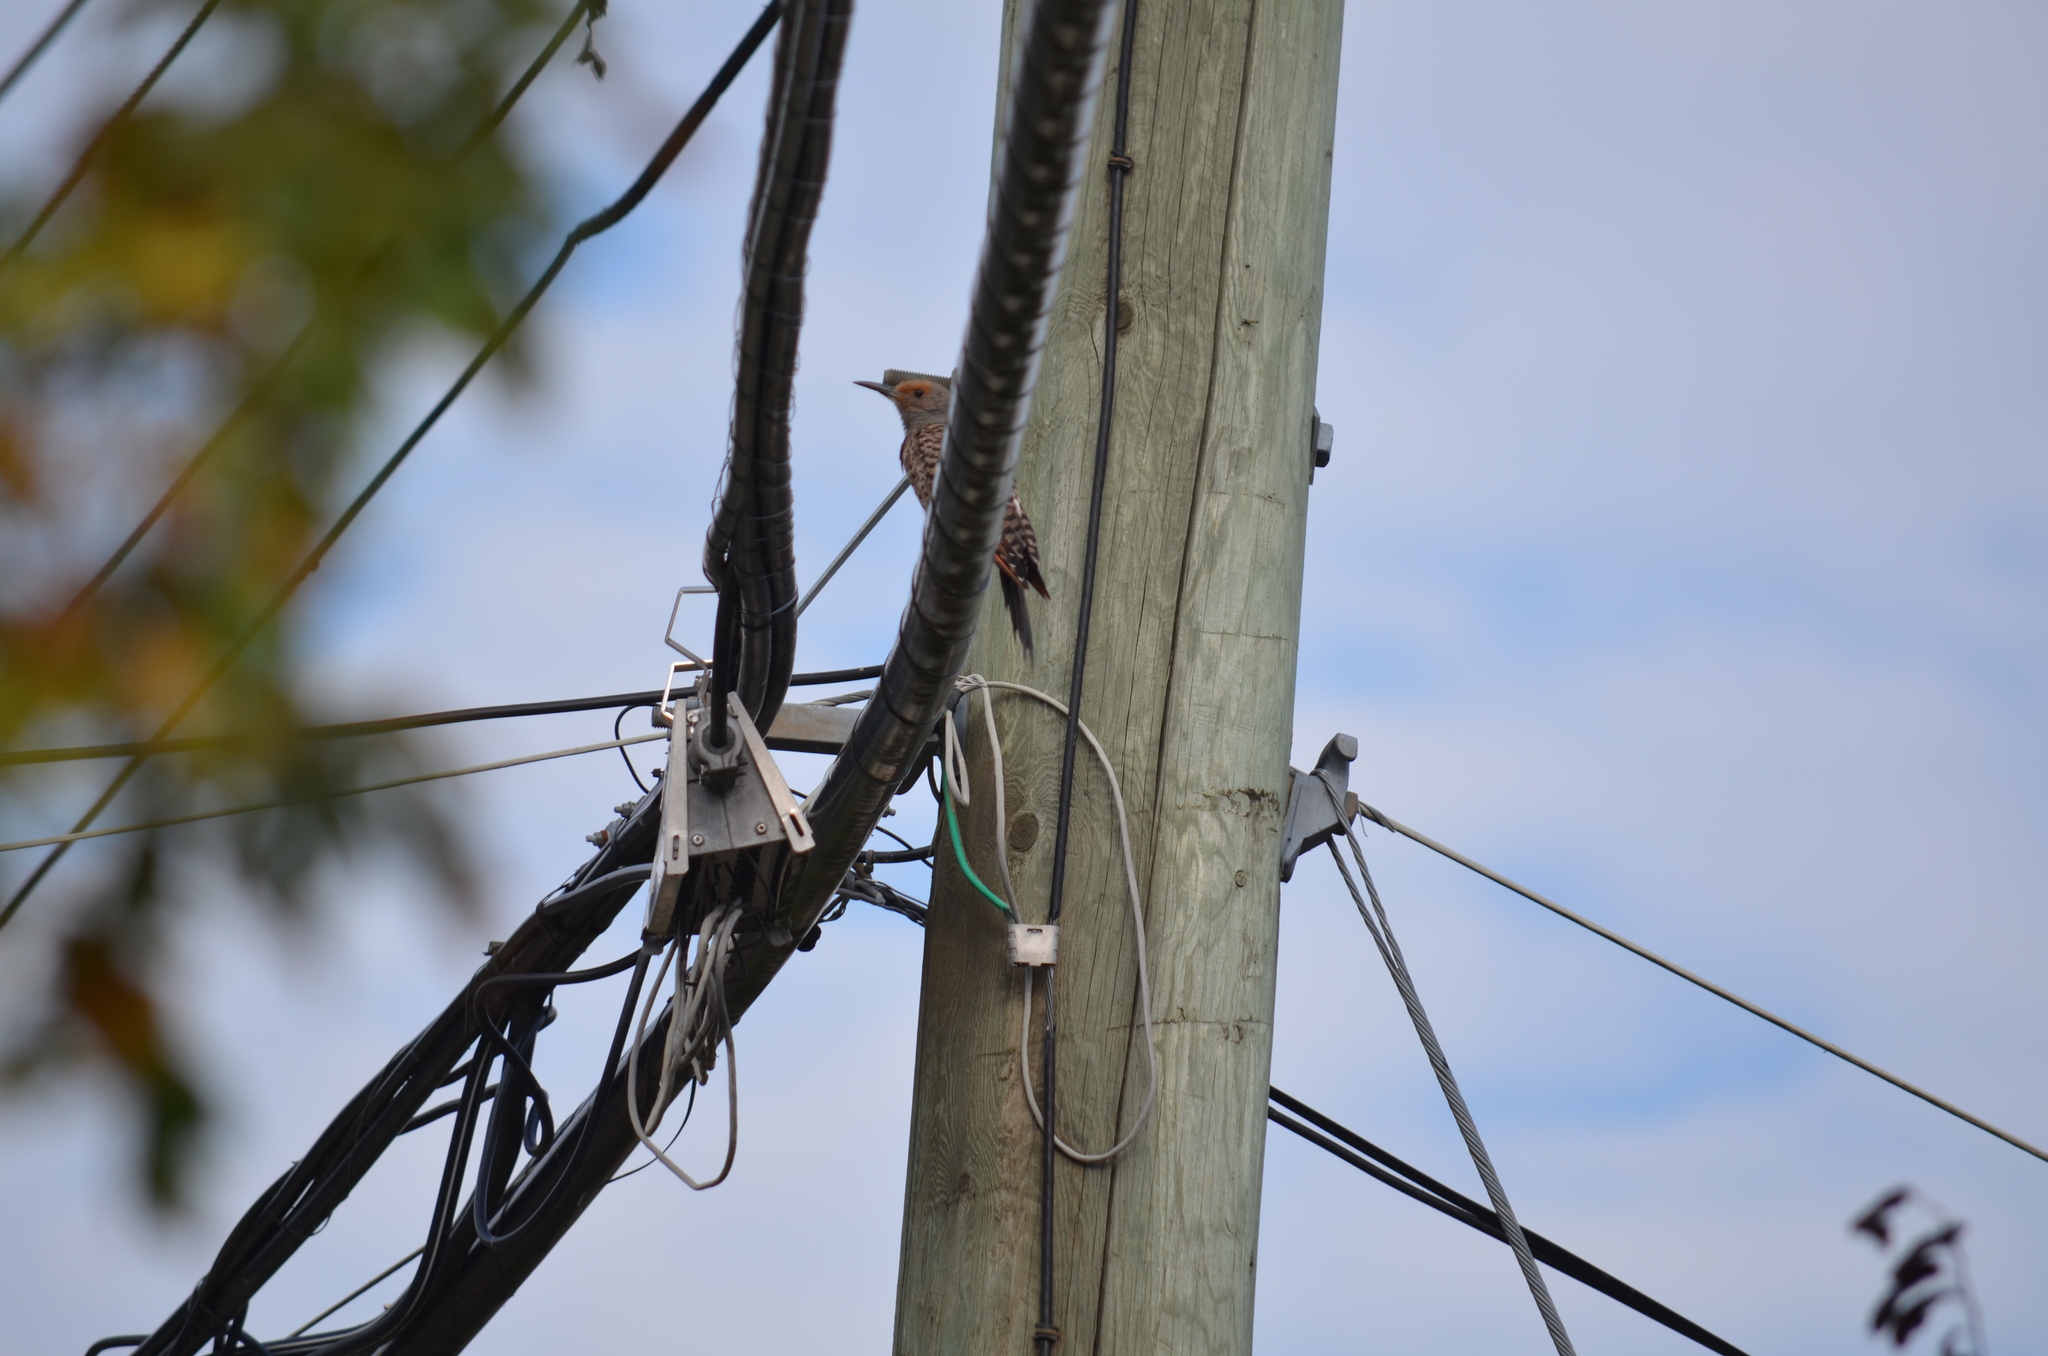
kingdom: Animalia
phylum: Chordata
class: Aves
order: Piciformes
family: Picidae
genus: Colaptes
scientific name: Colaptes auratus
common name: Northern flicker
